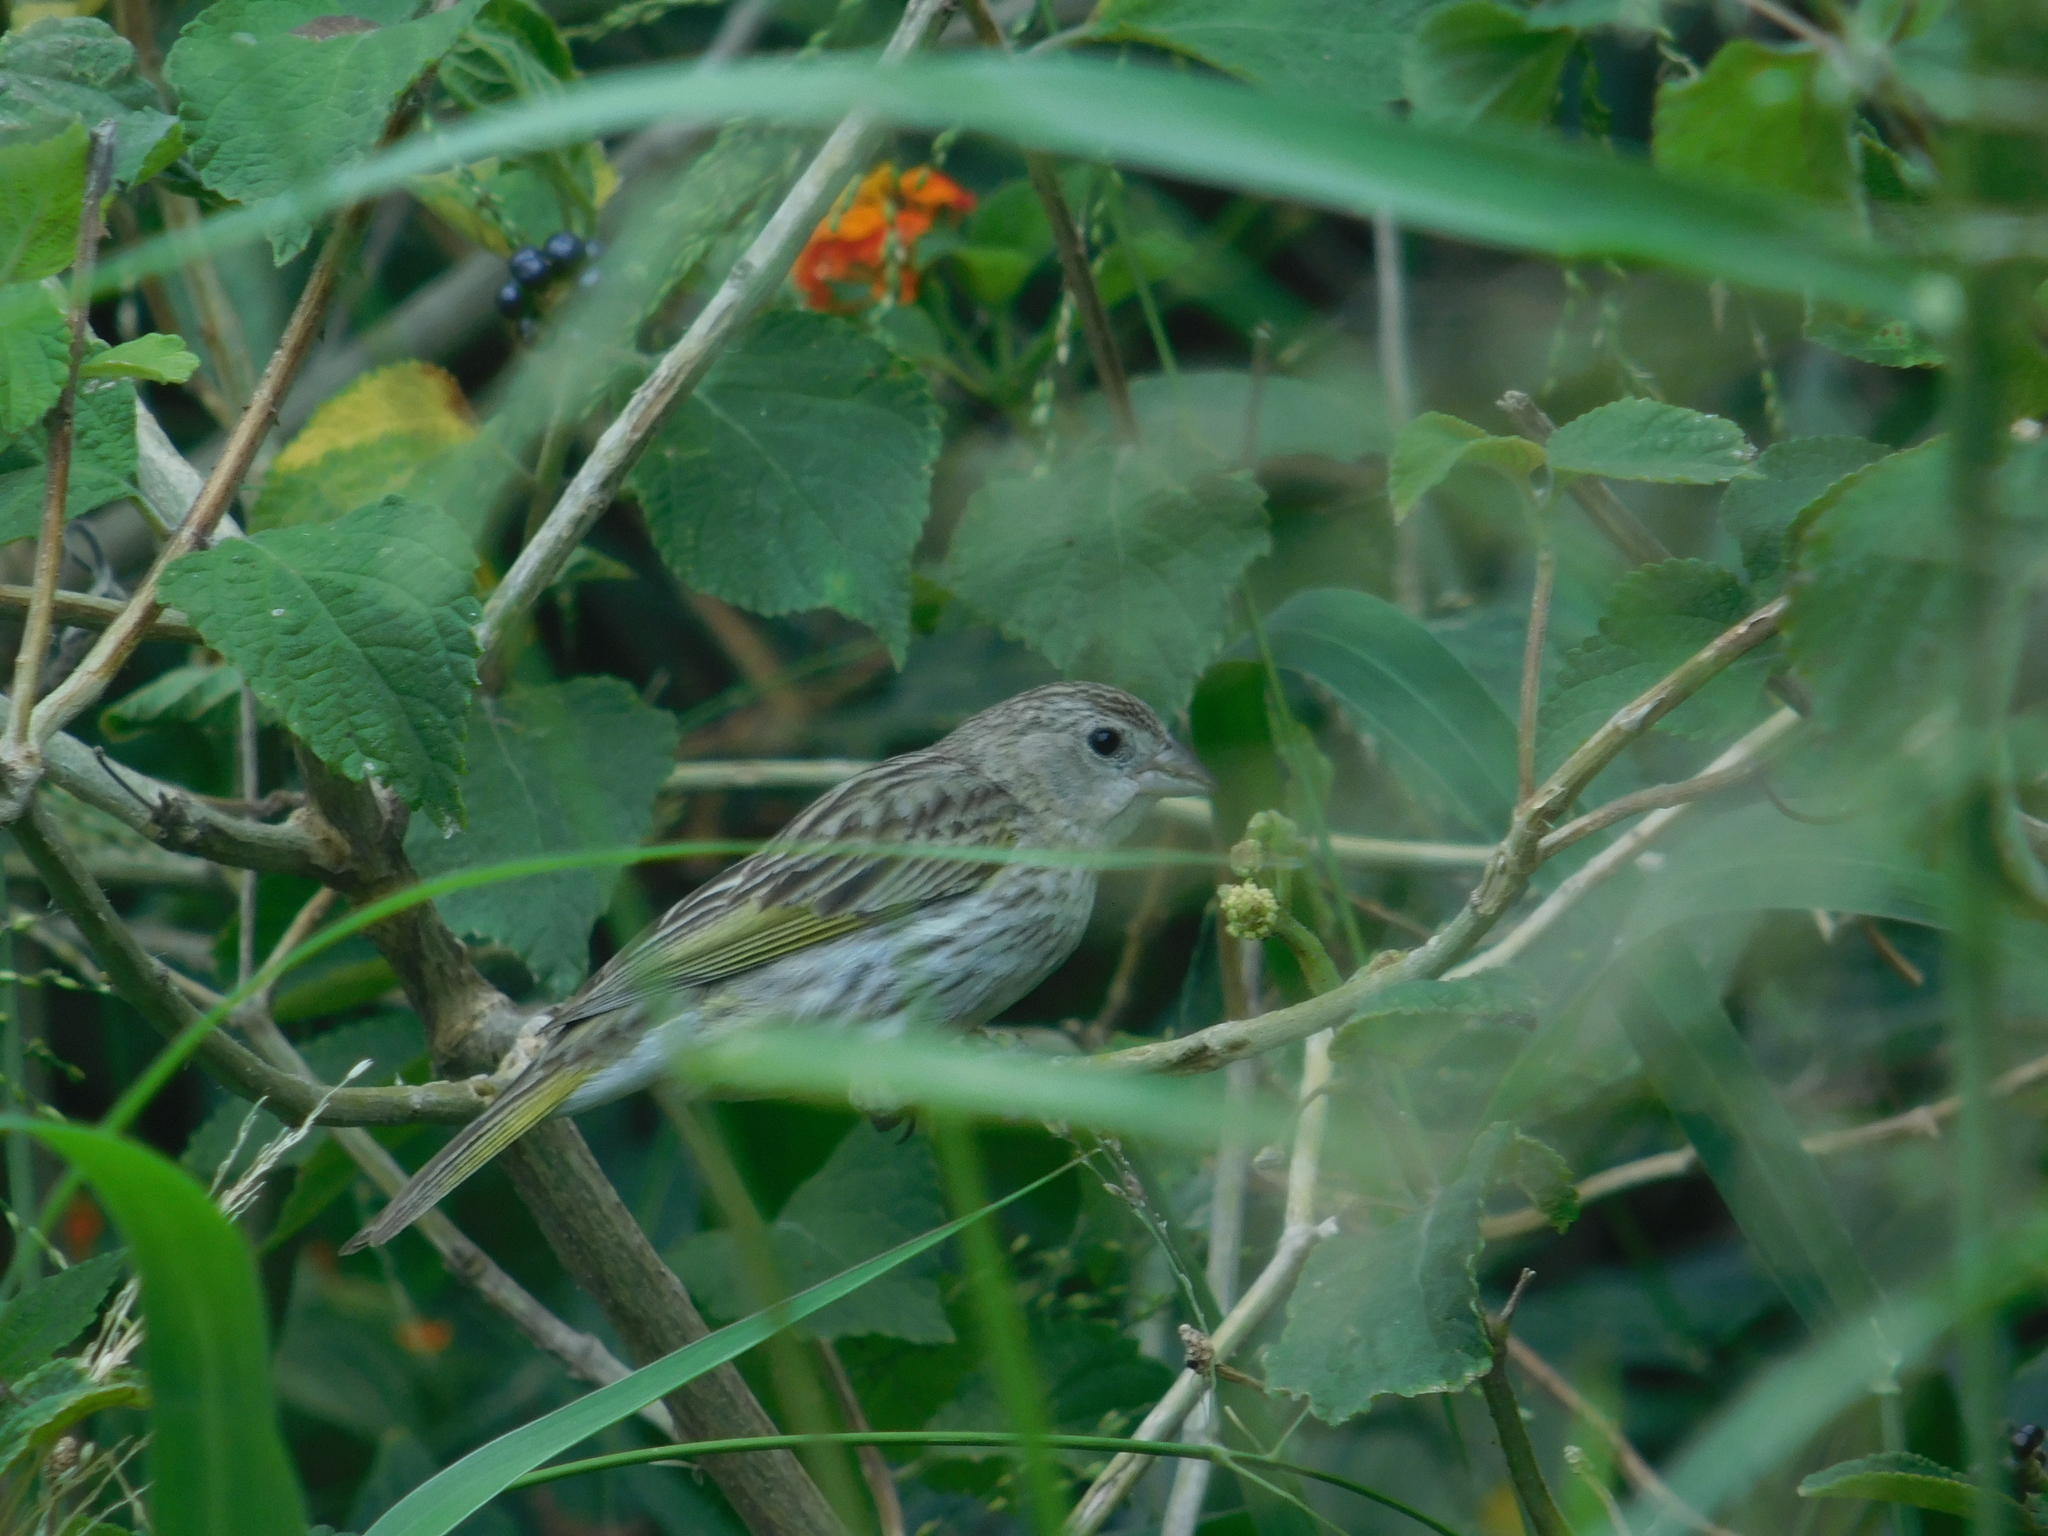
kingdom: Animalia
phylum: Chordata
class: Aves
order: Passeriformes
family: Thraupidae
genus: Sicalis
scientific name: Sicalis flaveola
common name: Saffron finch
